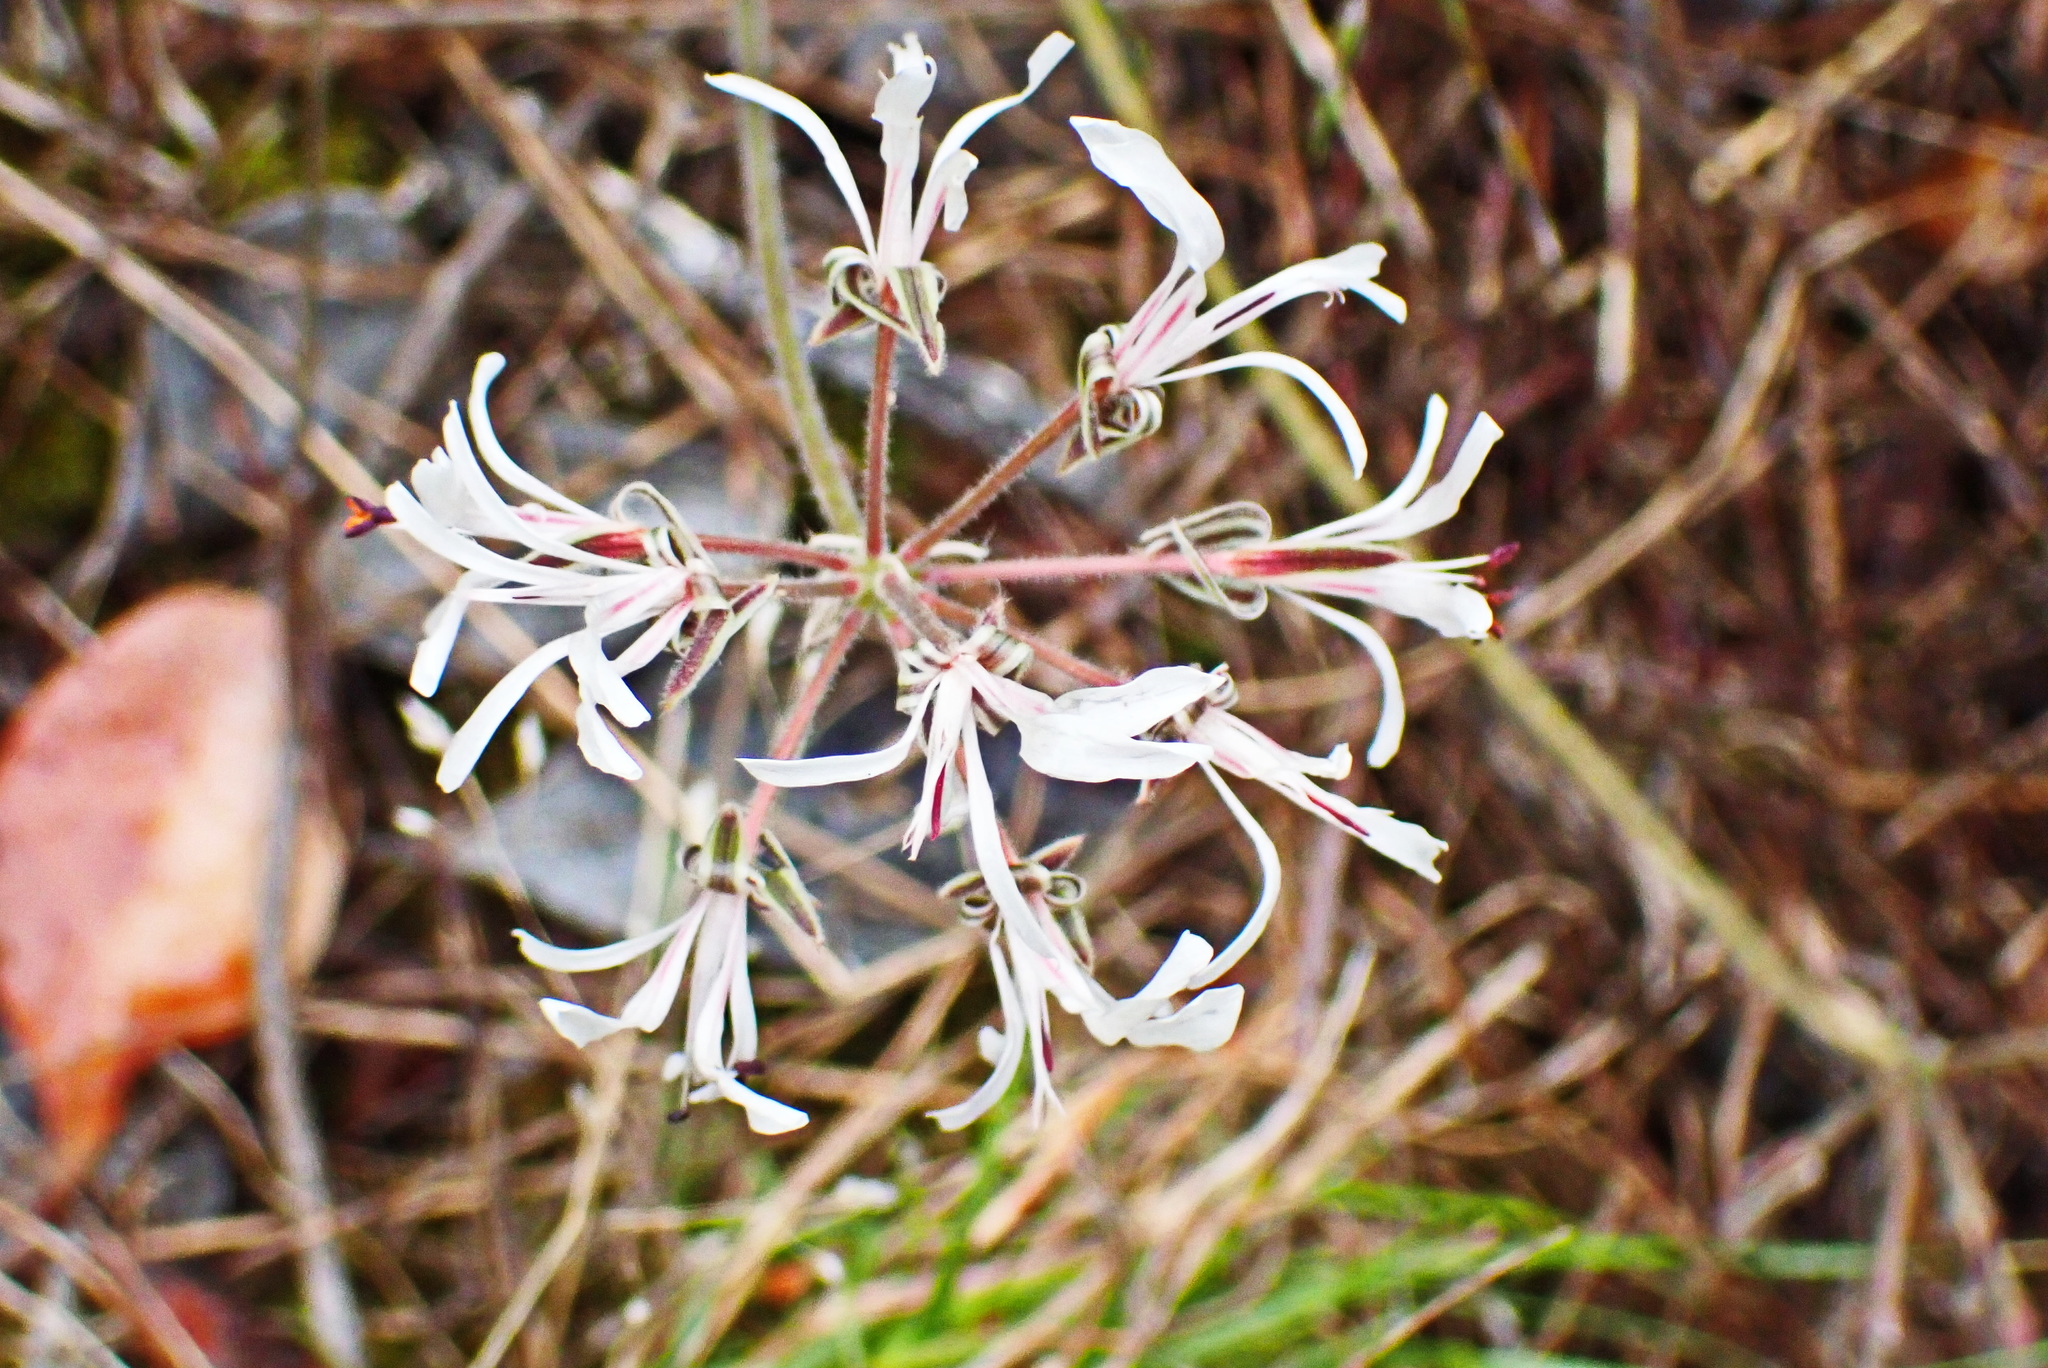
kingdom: Plantae
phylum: Tracheophyta
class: Magnoliopsida
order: Geraniales
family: Geraniaceae
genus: Pelargonium
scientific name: Pelargonium auritum
